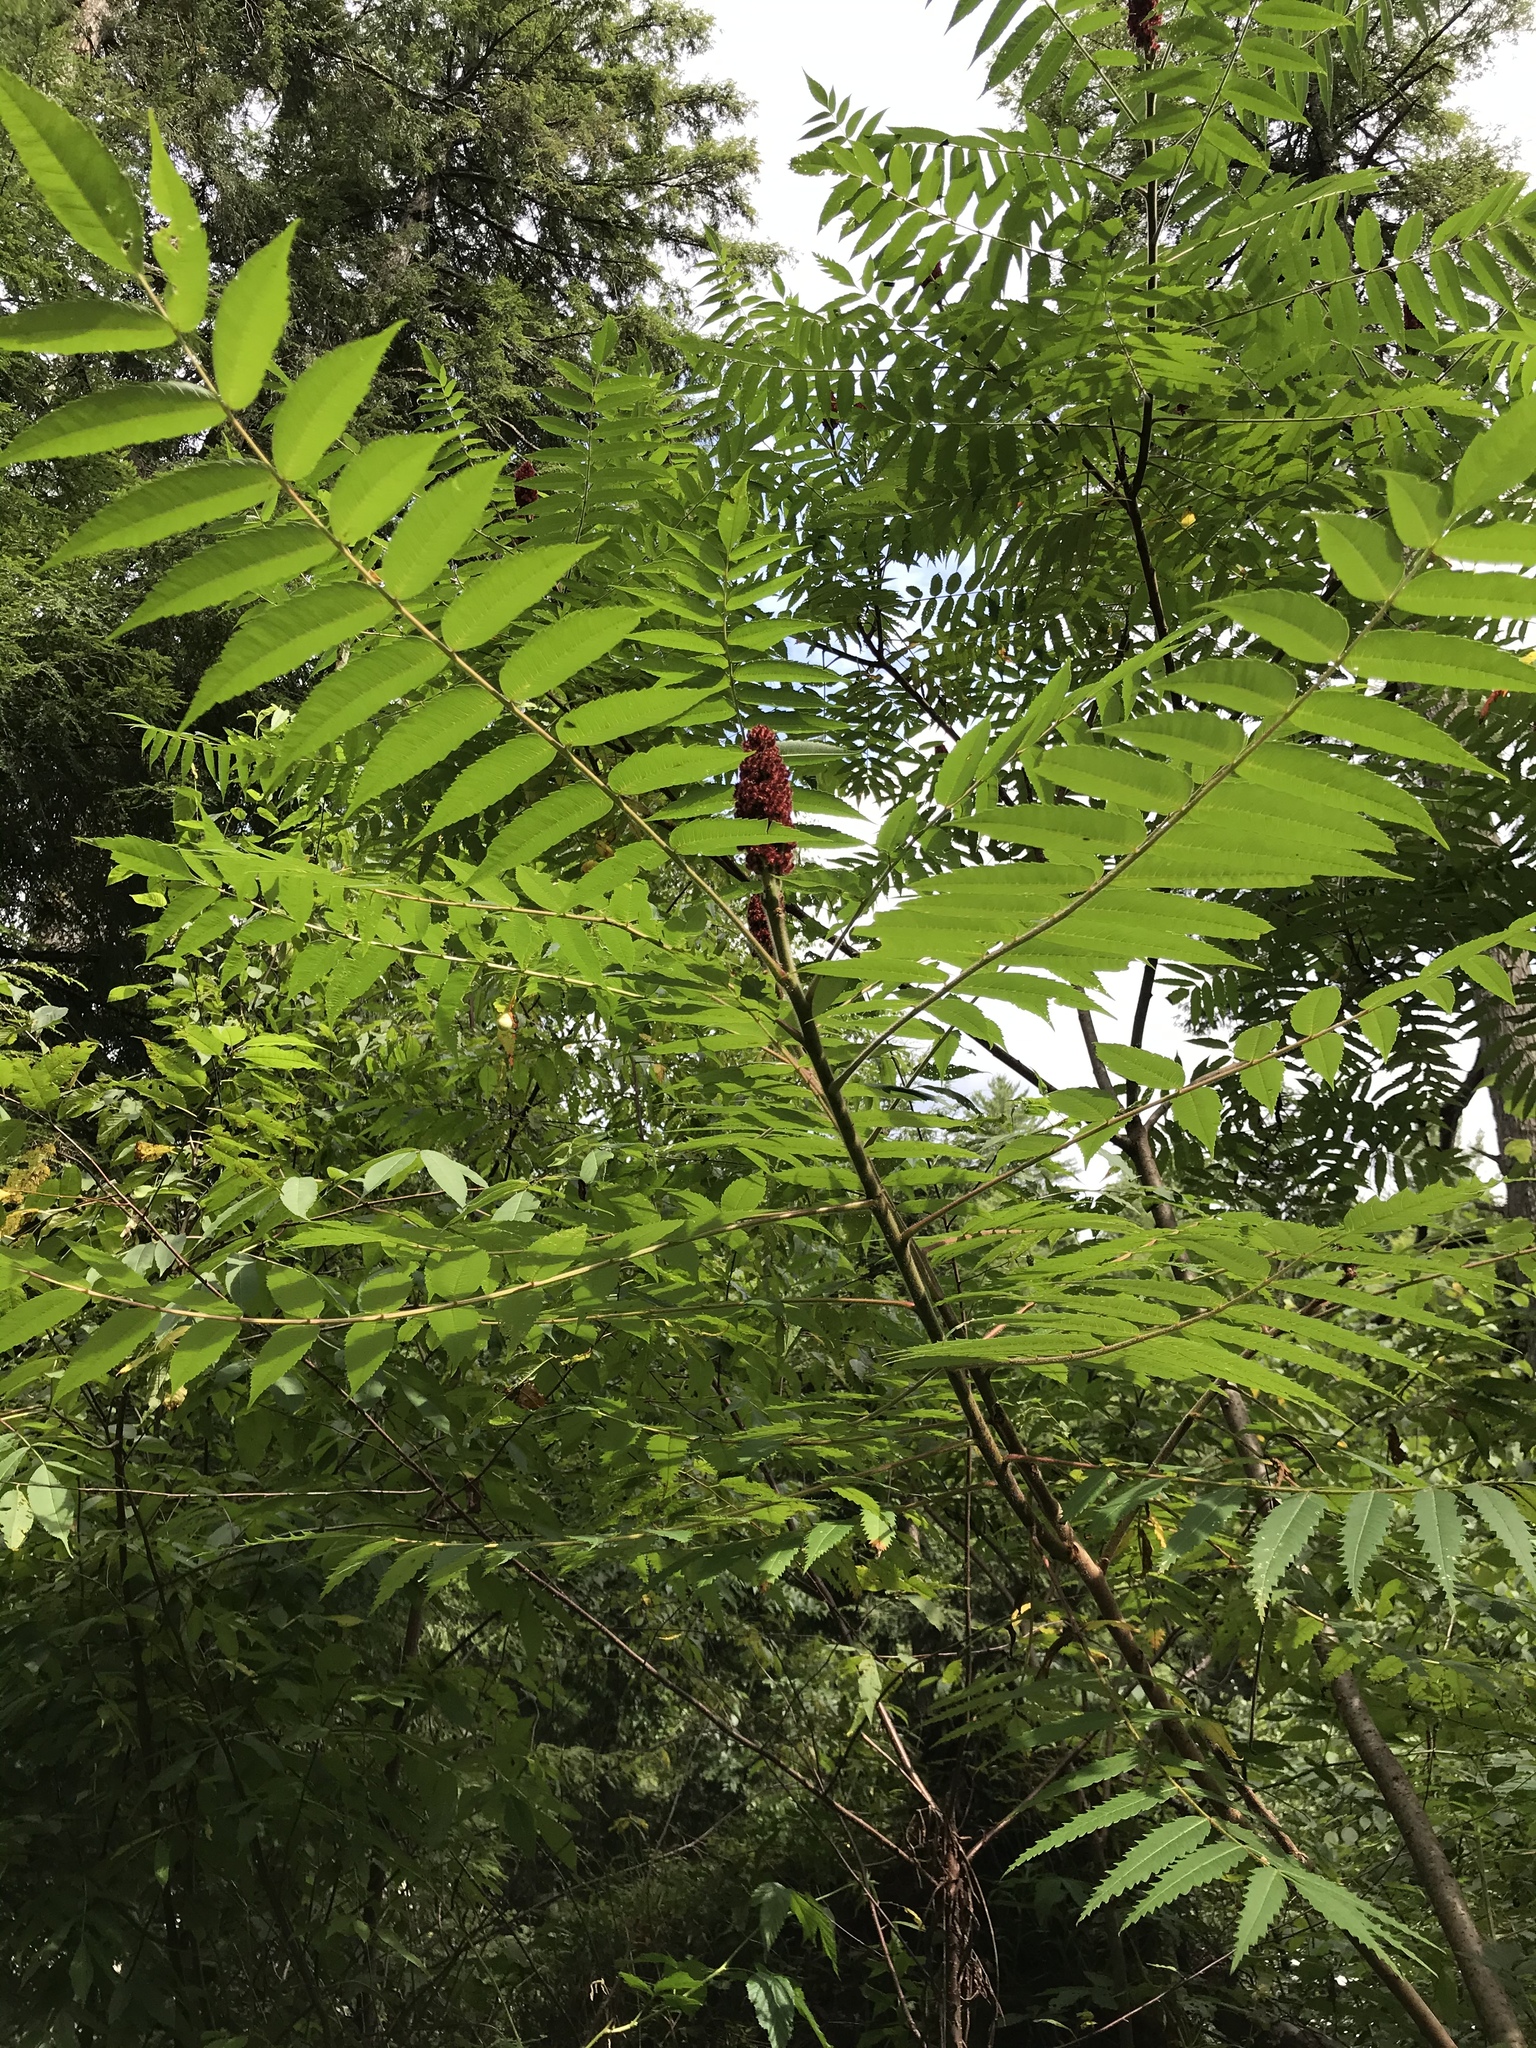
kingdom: Plantae
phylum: Tracheophyta
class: Magnoliopsida
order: Sapindales
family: Anacardiaceae
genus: Rhus
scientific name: Rhus typhina
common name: Staghorn sumac
